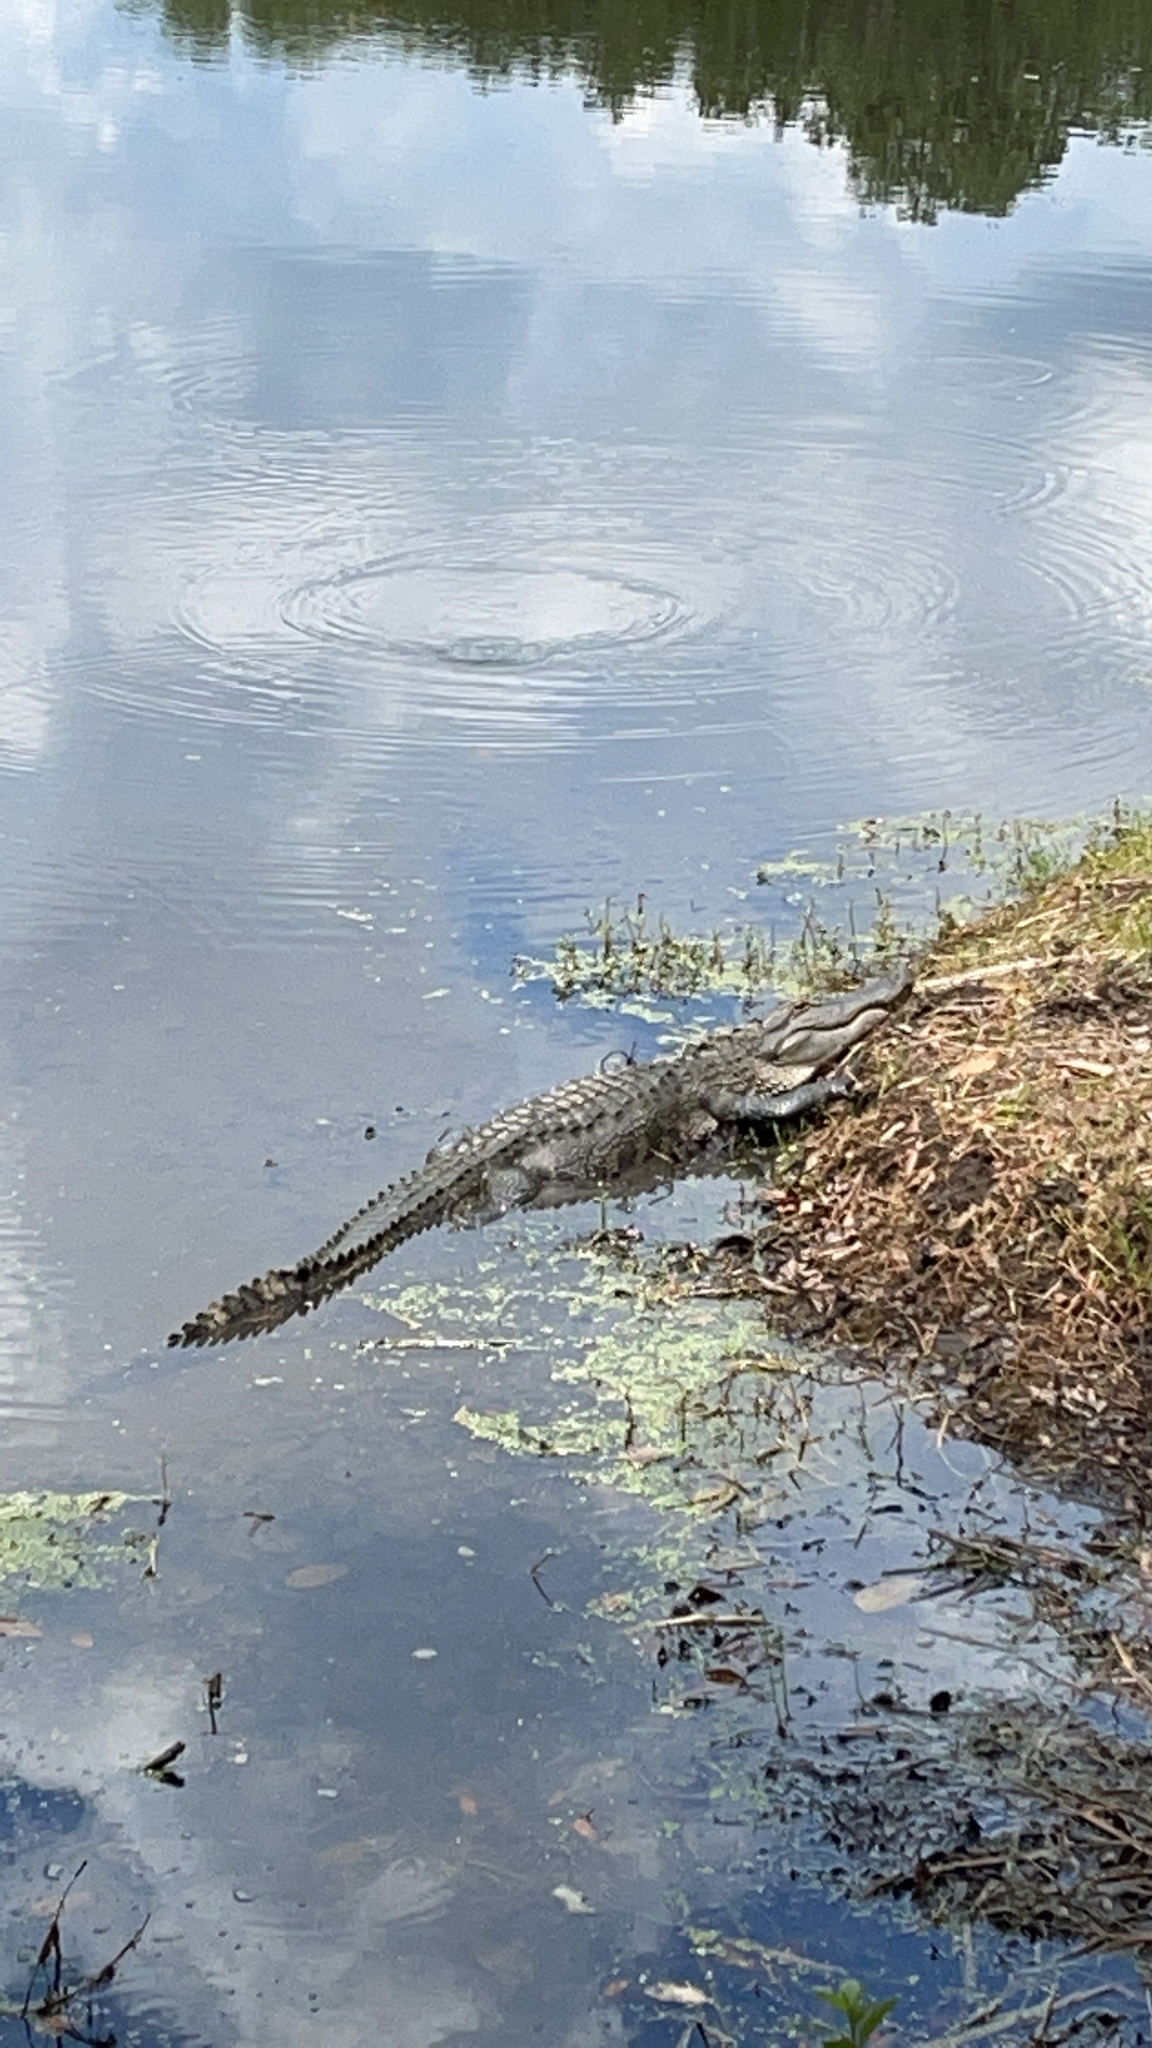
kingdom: Animalia
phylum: Chordata
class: Crocodylia
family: Alligatoridae
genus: Alligator
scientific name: Alligator mississippiensis
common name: American alligator
